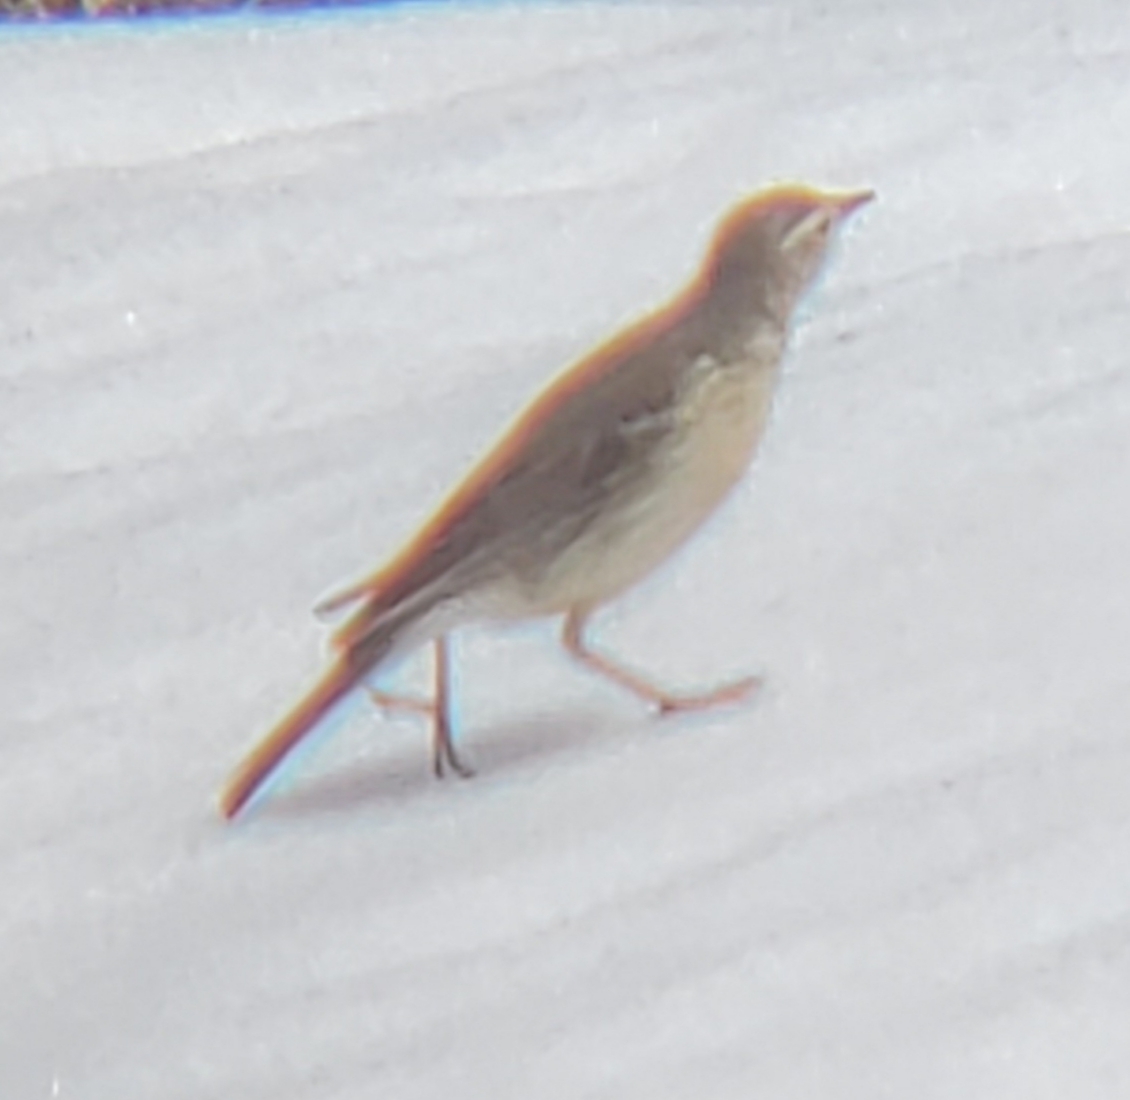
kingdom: Animalia
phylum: Chordata
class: Aves
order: Passeriformes
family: Motacillidae
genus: Anthus
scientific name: Anthus rubescens
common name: Buff-bellied pipit
